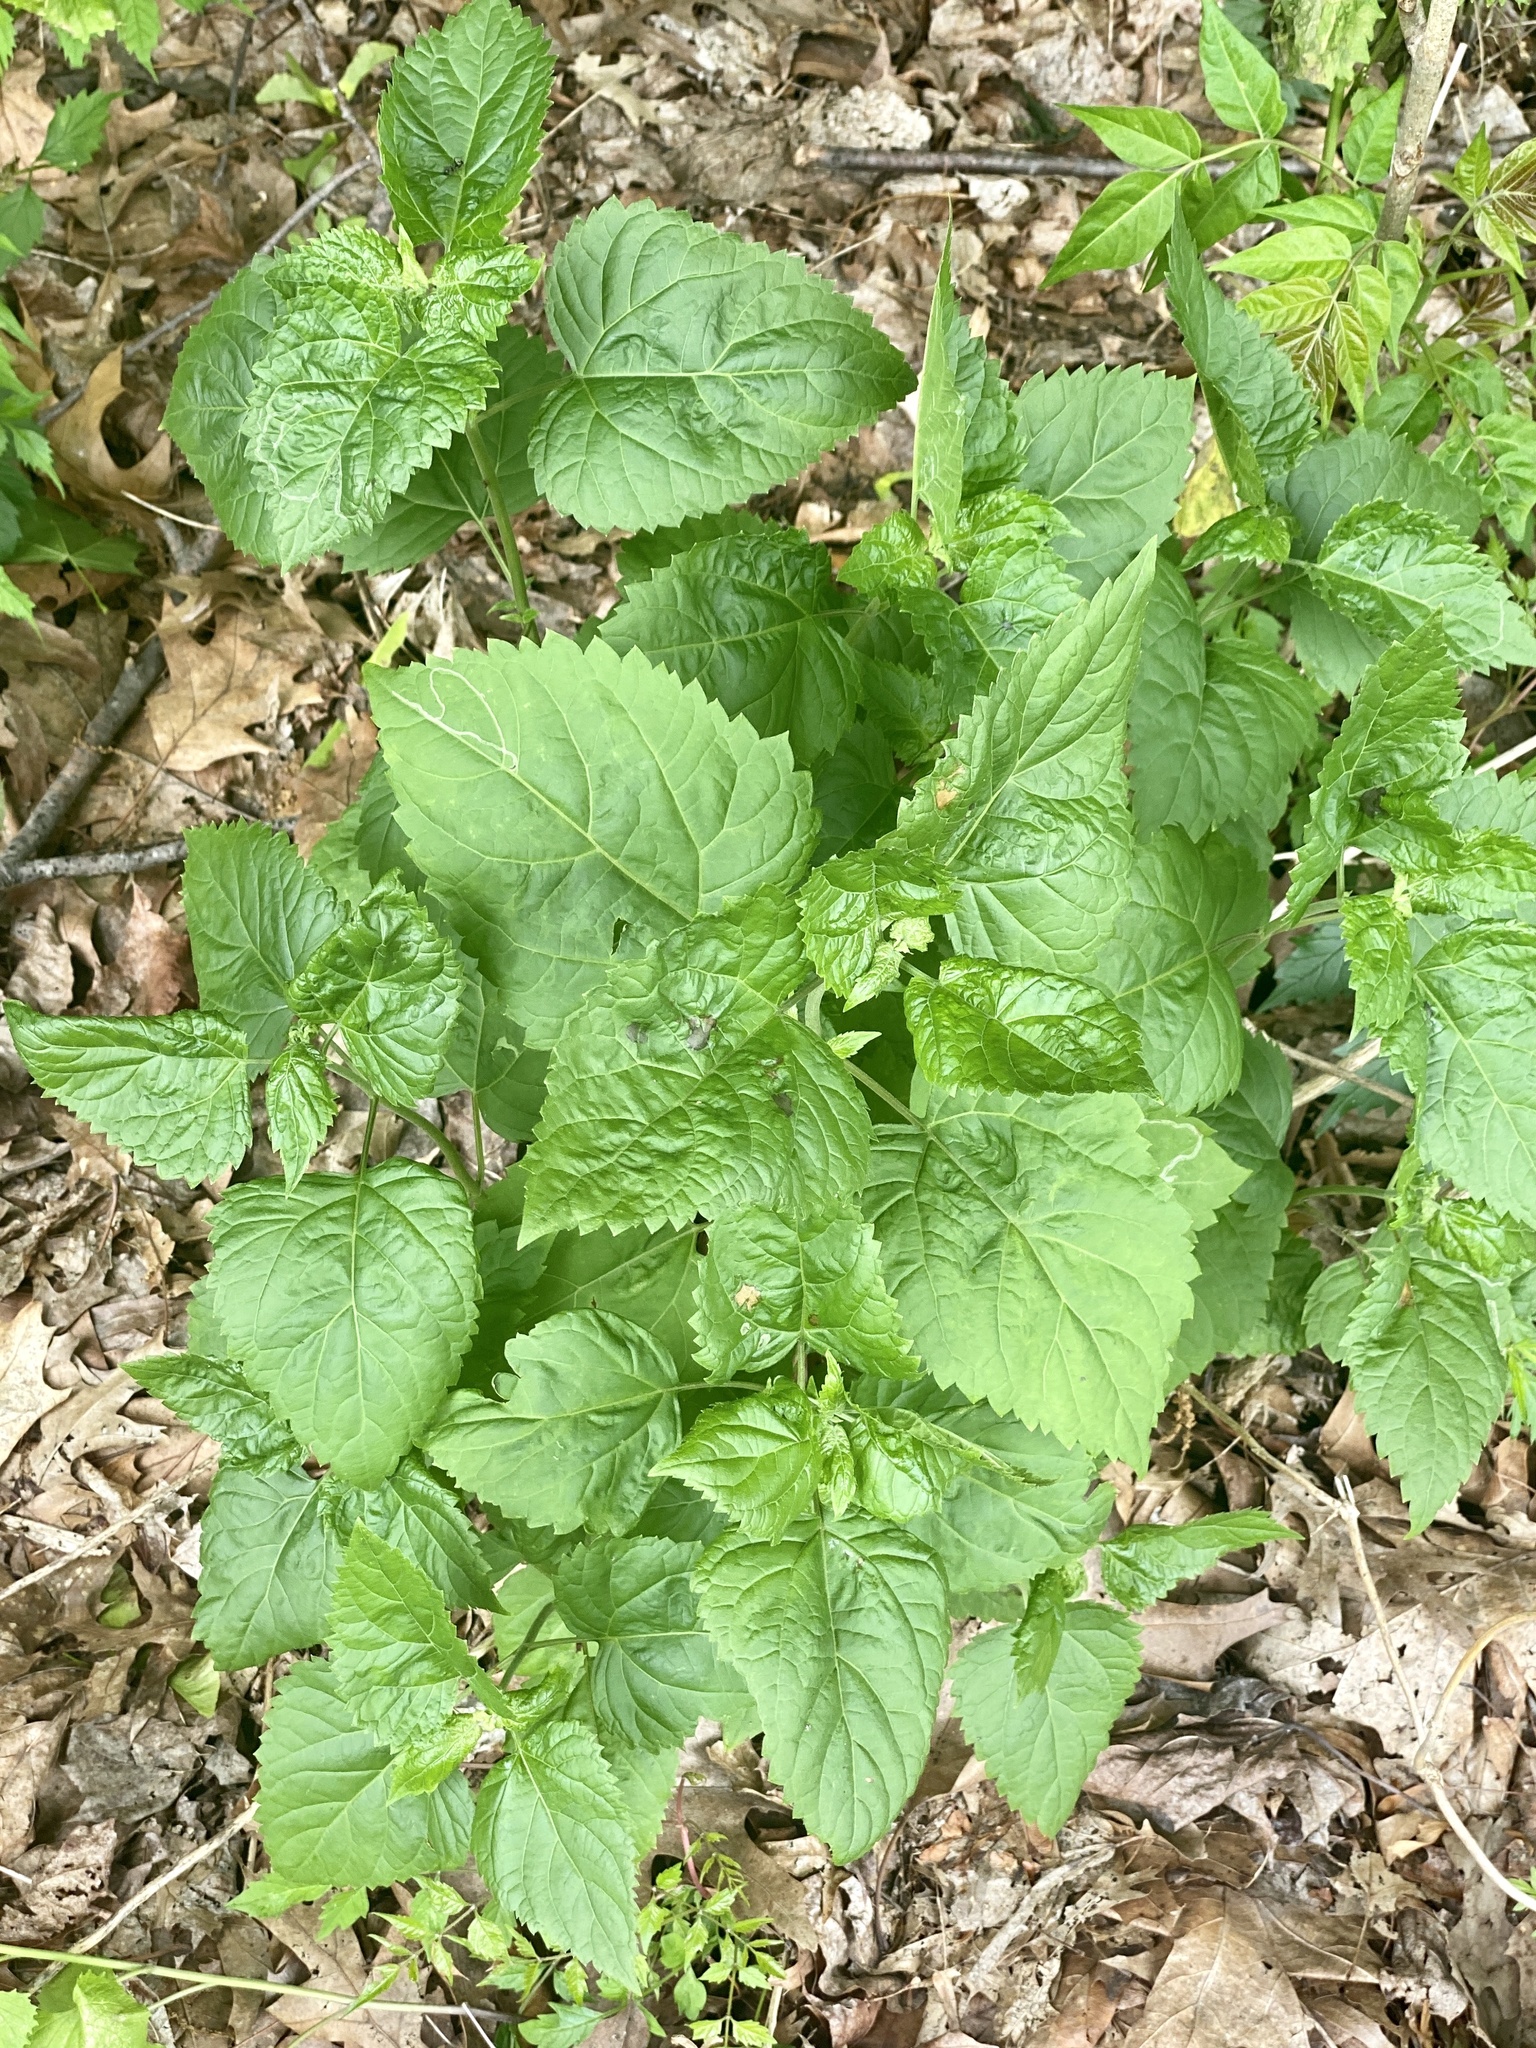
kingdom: Plantae
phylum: Tracheophyta
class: Magnoliopsida
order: Asterales
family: Asteraceae
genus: Ageratina
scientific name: Ageratina altissima
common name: White snakeroot
